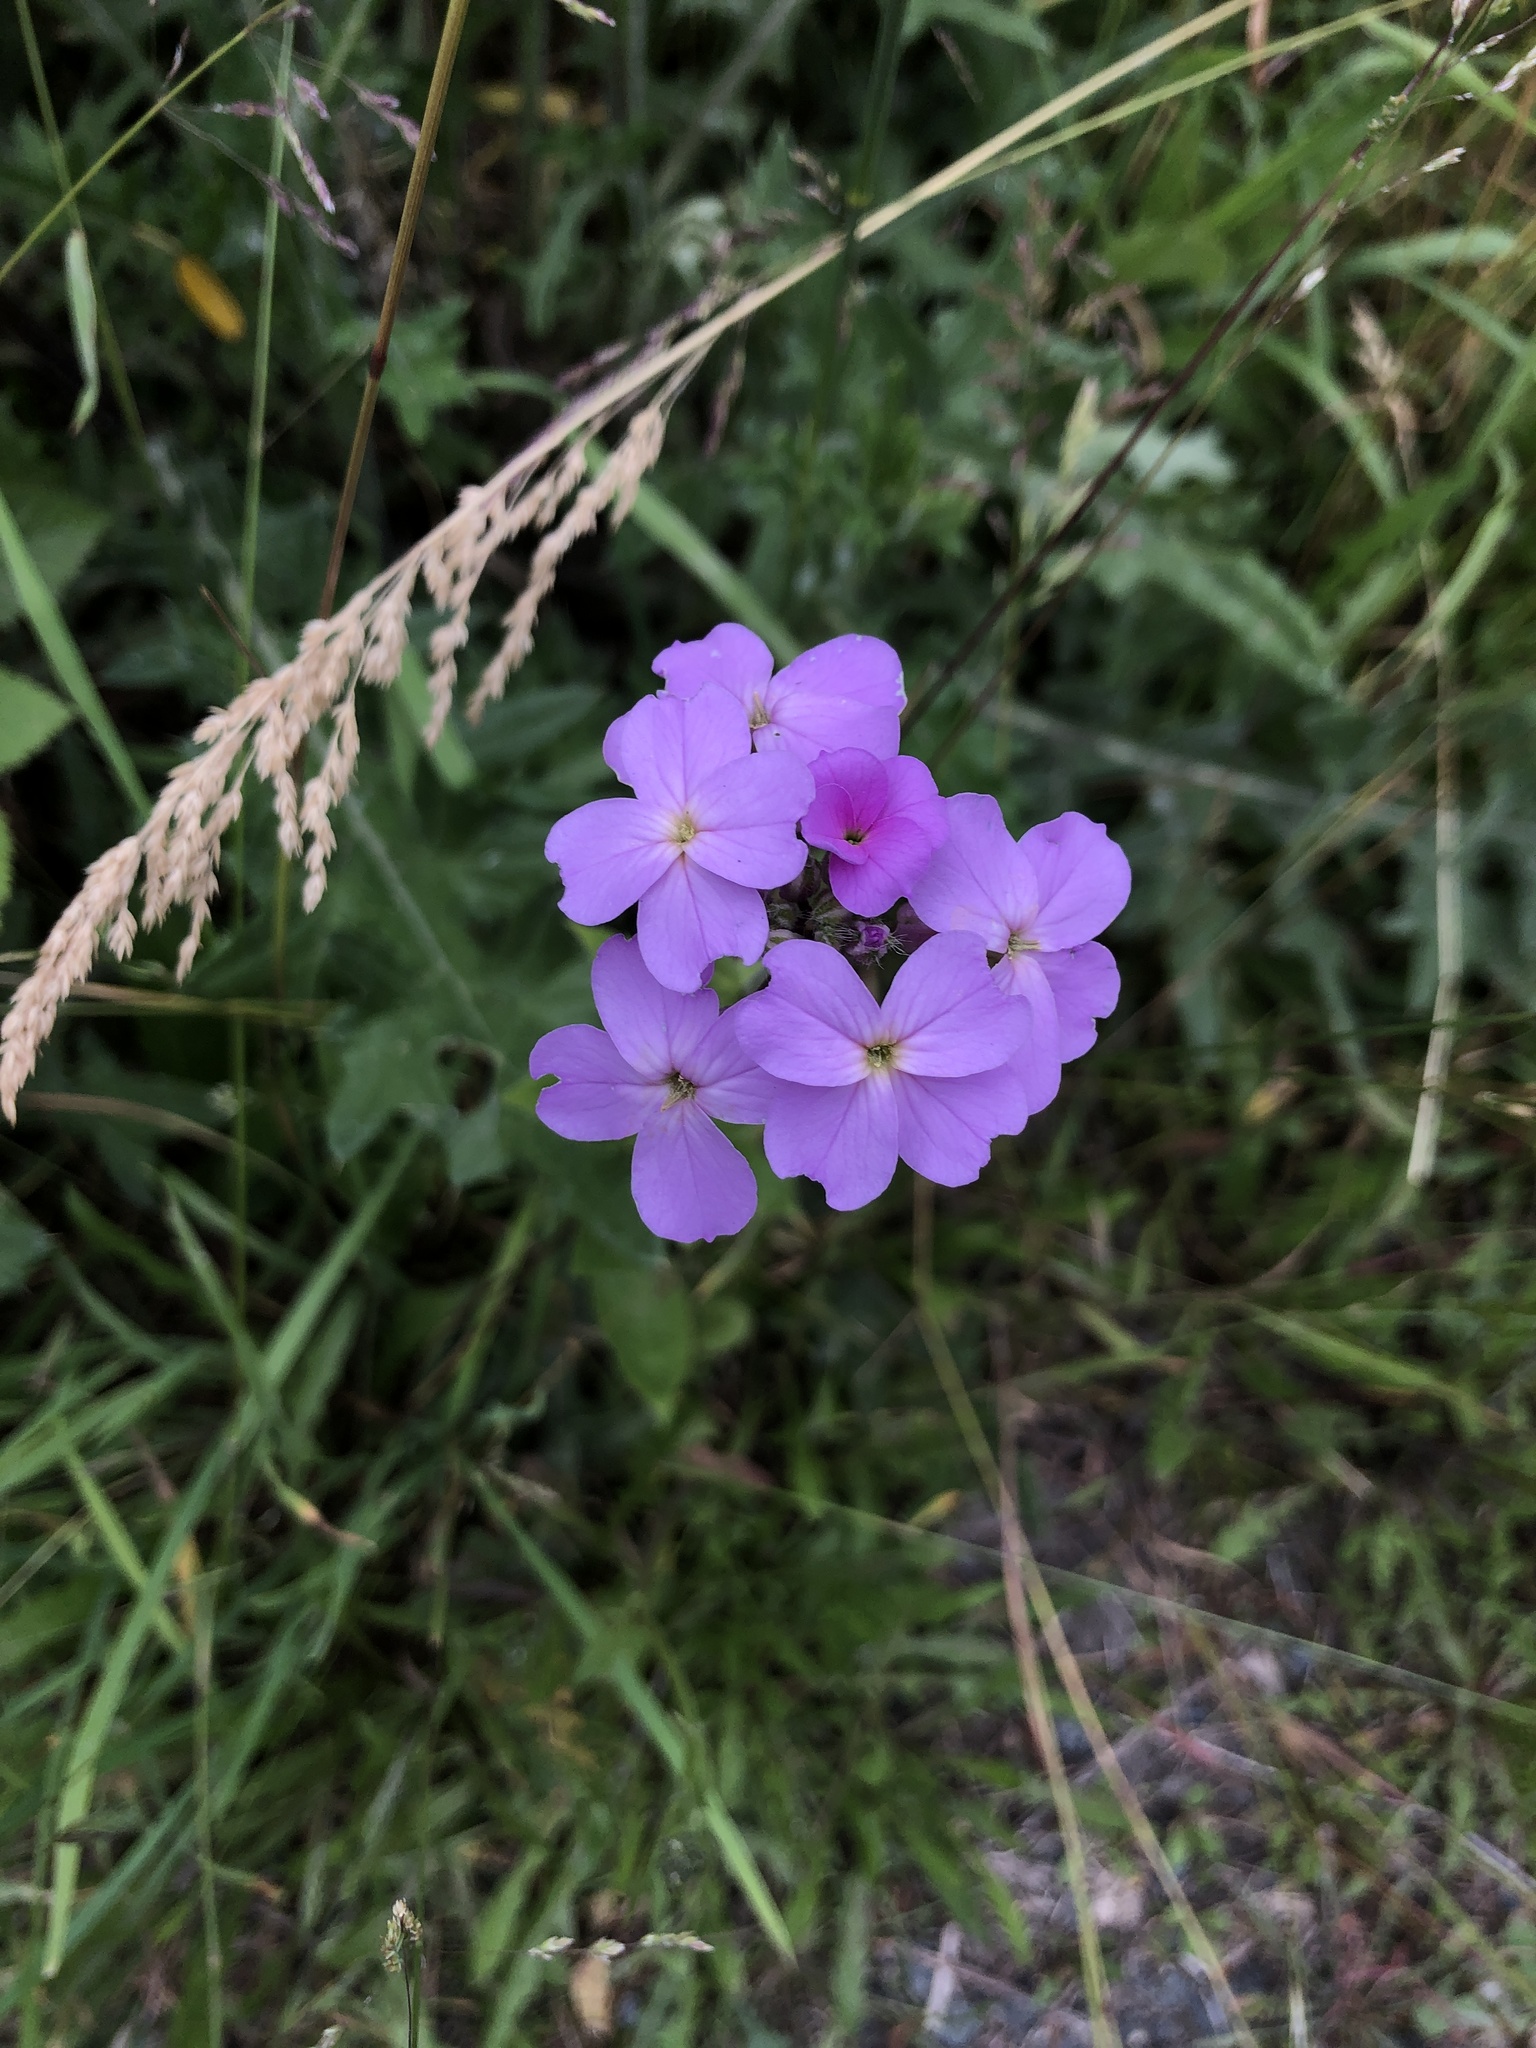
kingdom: Plantae
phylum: Tracheophyta
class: Magnoliopsida
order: Brassicales
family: Brassicaceae
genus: Hesperis
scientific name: Hesperis matronalis
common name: Dame's-violet
